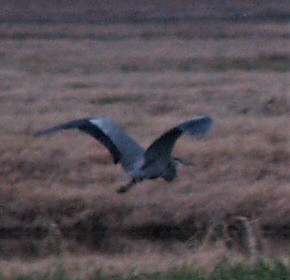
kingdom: Animalia
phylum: Chordata
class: Aves
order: Pelecaniformes
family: Ardeidae
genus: Ardea
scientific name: Ardea herodias
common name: Great blue heron
